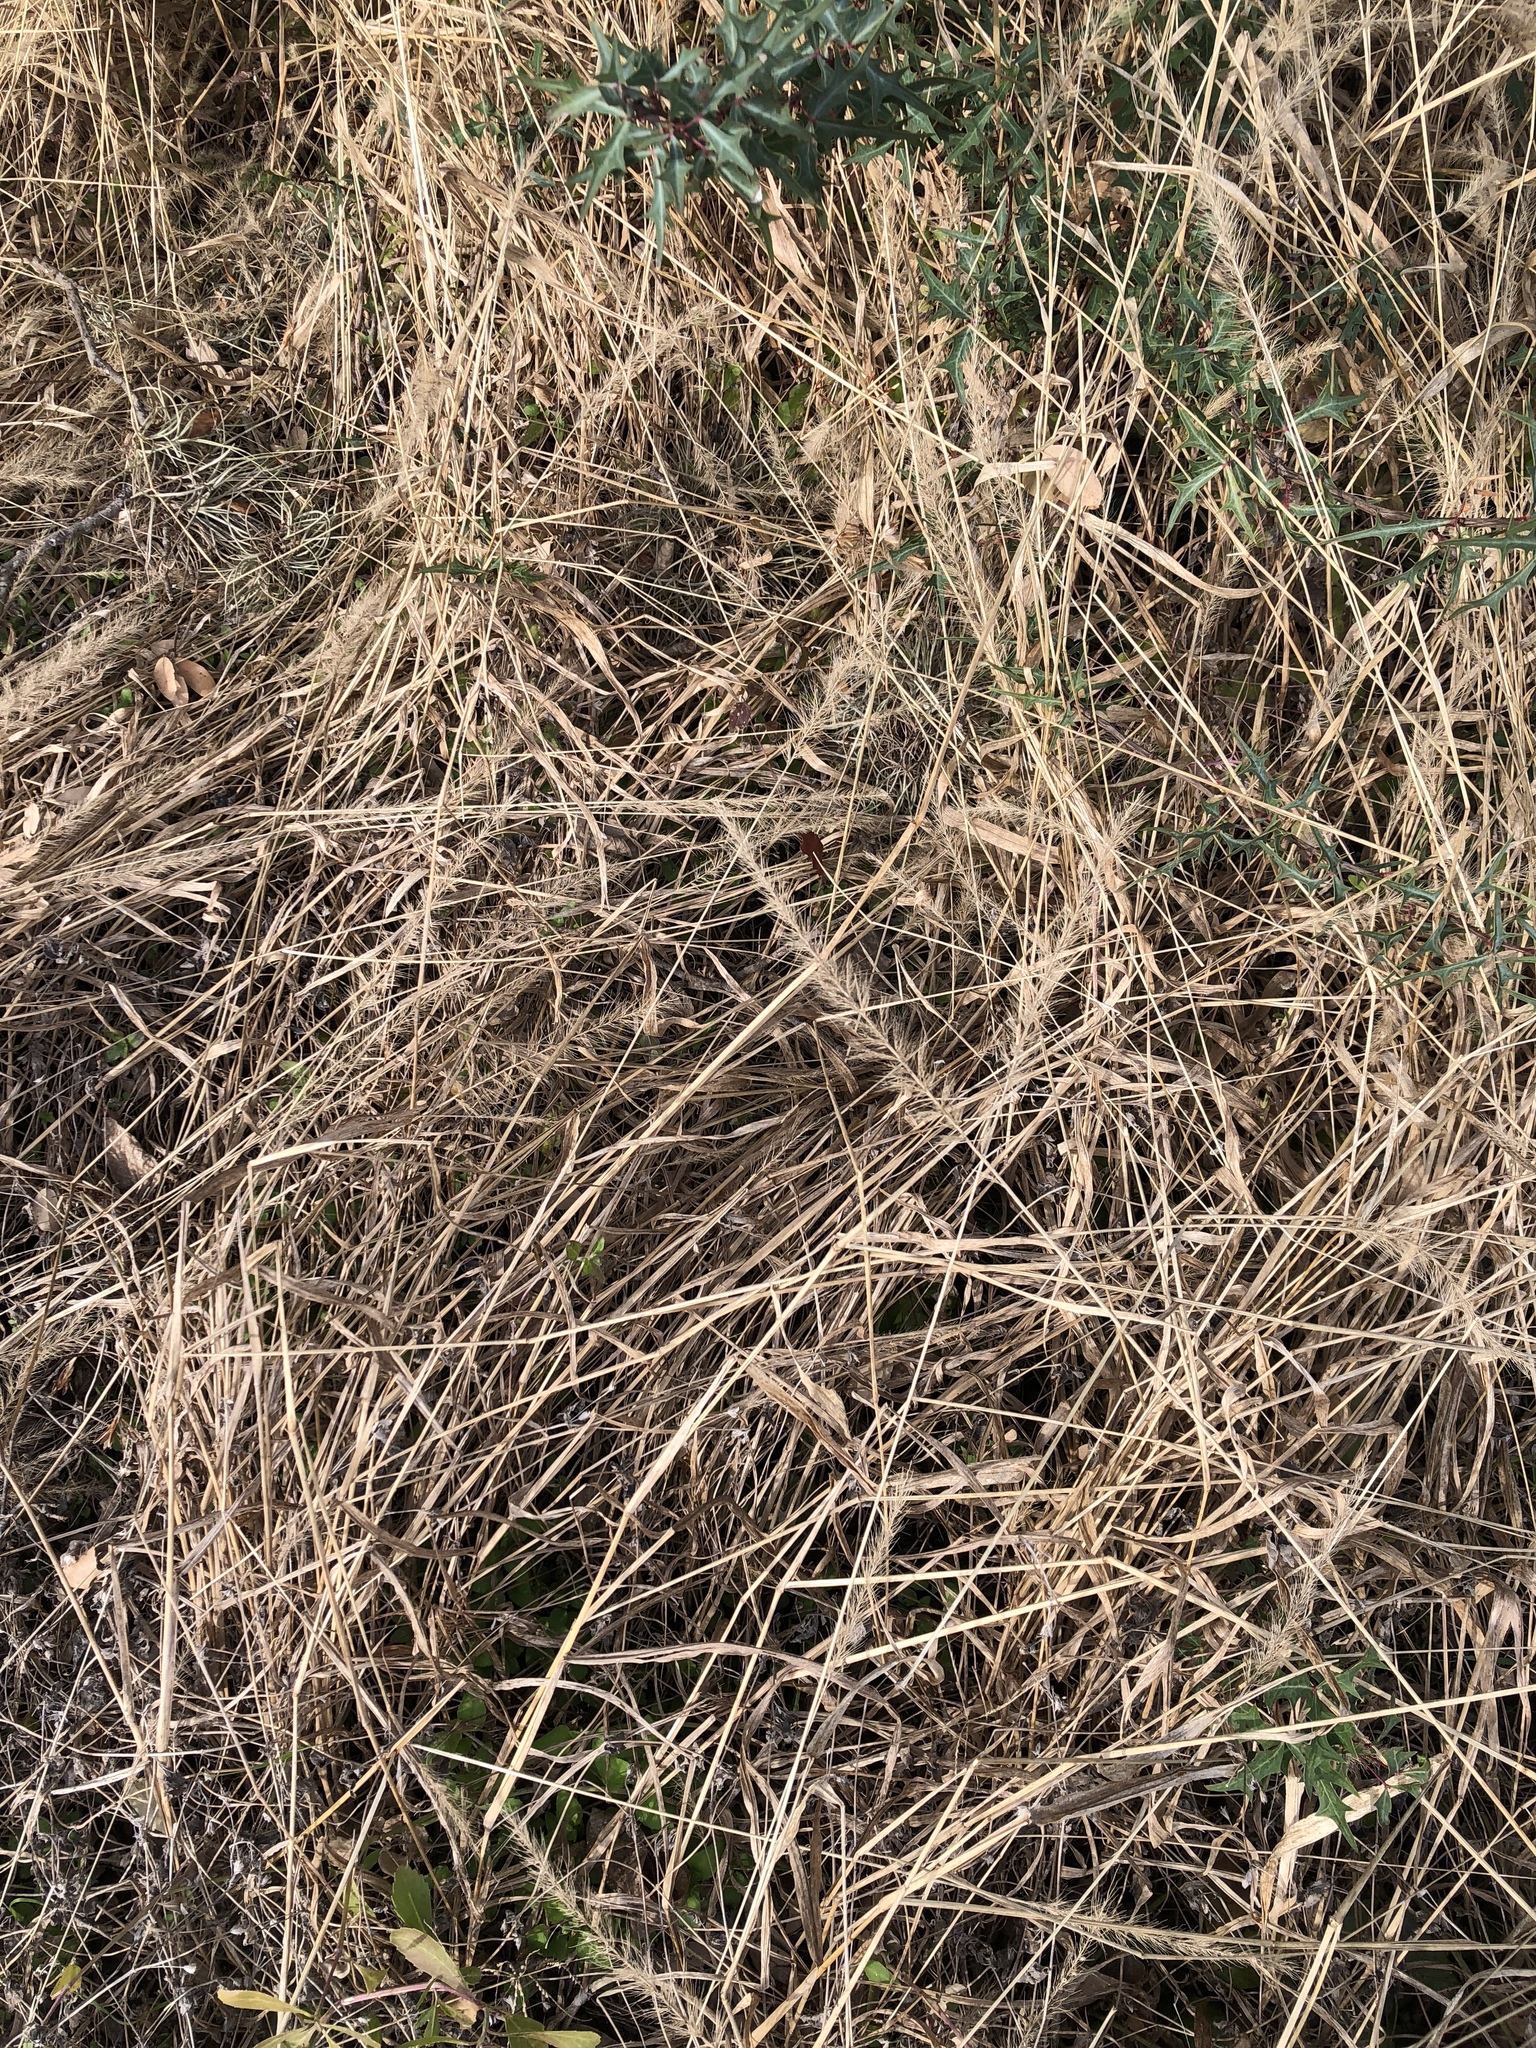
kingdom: Plantae
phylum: Tracheophyta
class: Liliopsida
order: Poales
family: Poaceae
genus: Setaria
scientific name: Setaria scheelei
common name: Southwestern bristle grass
